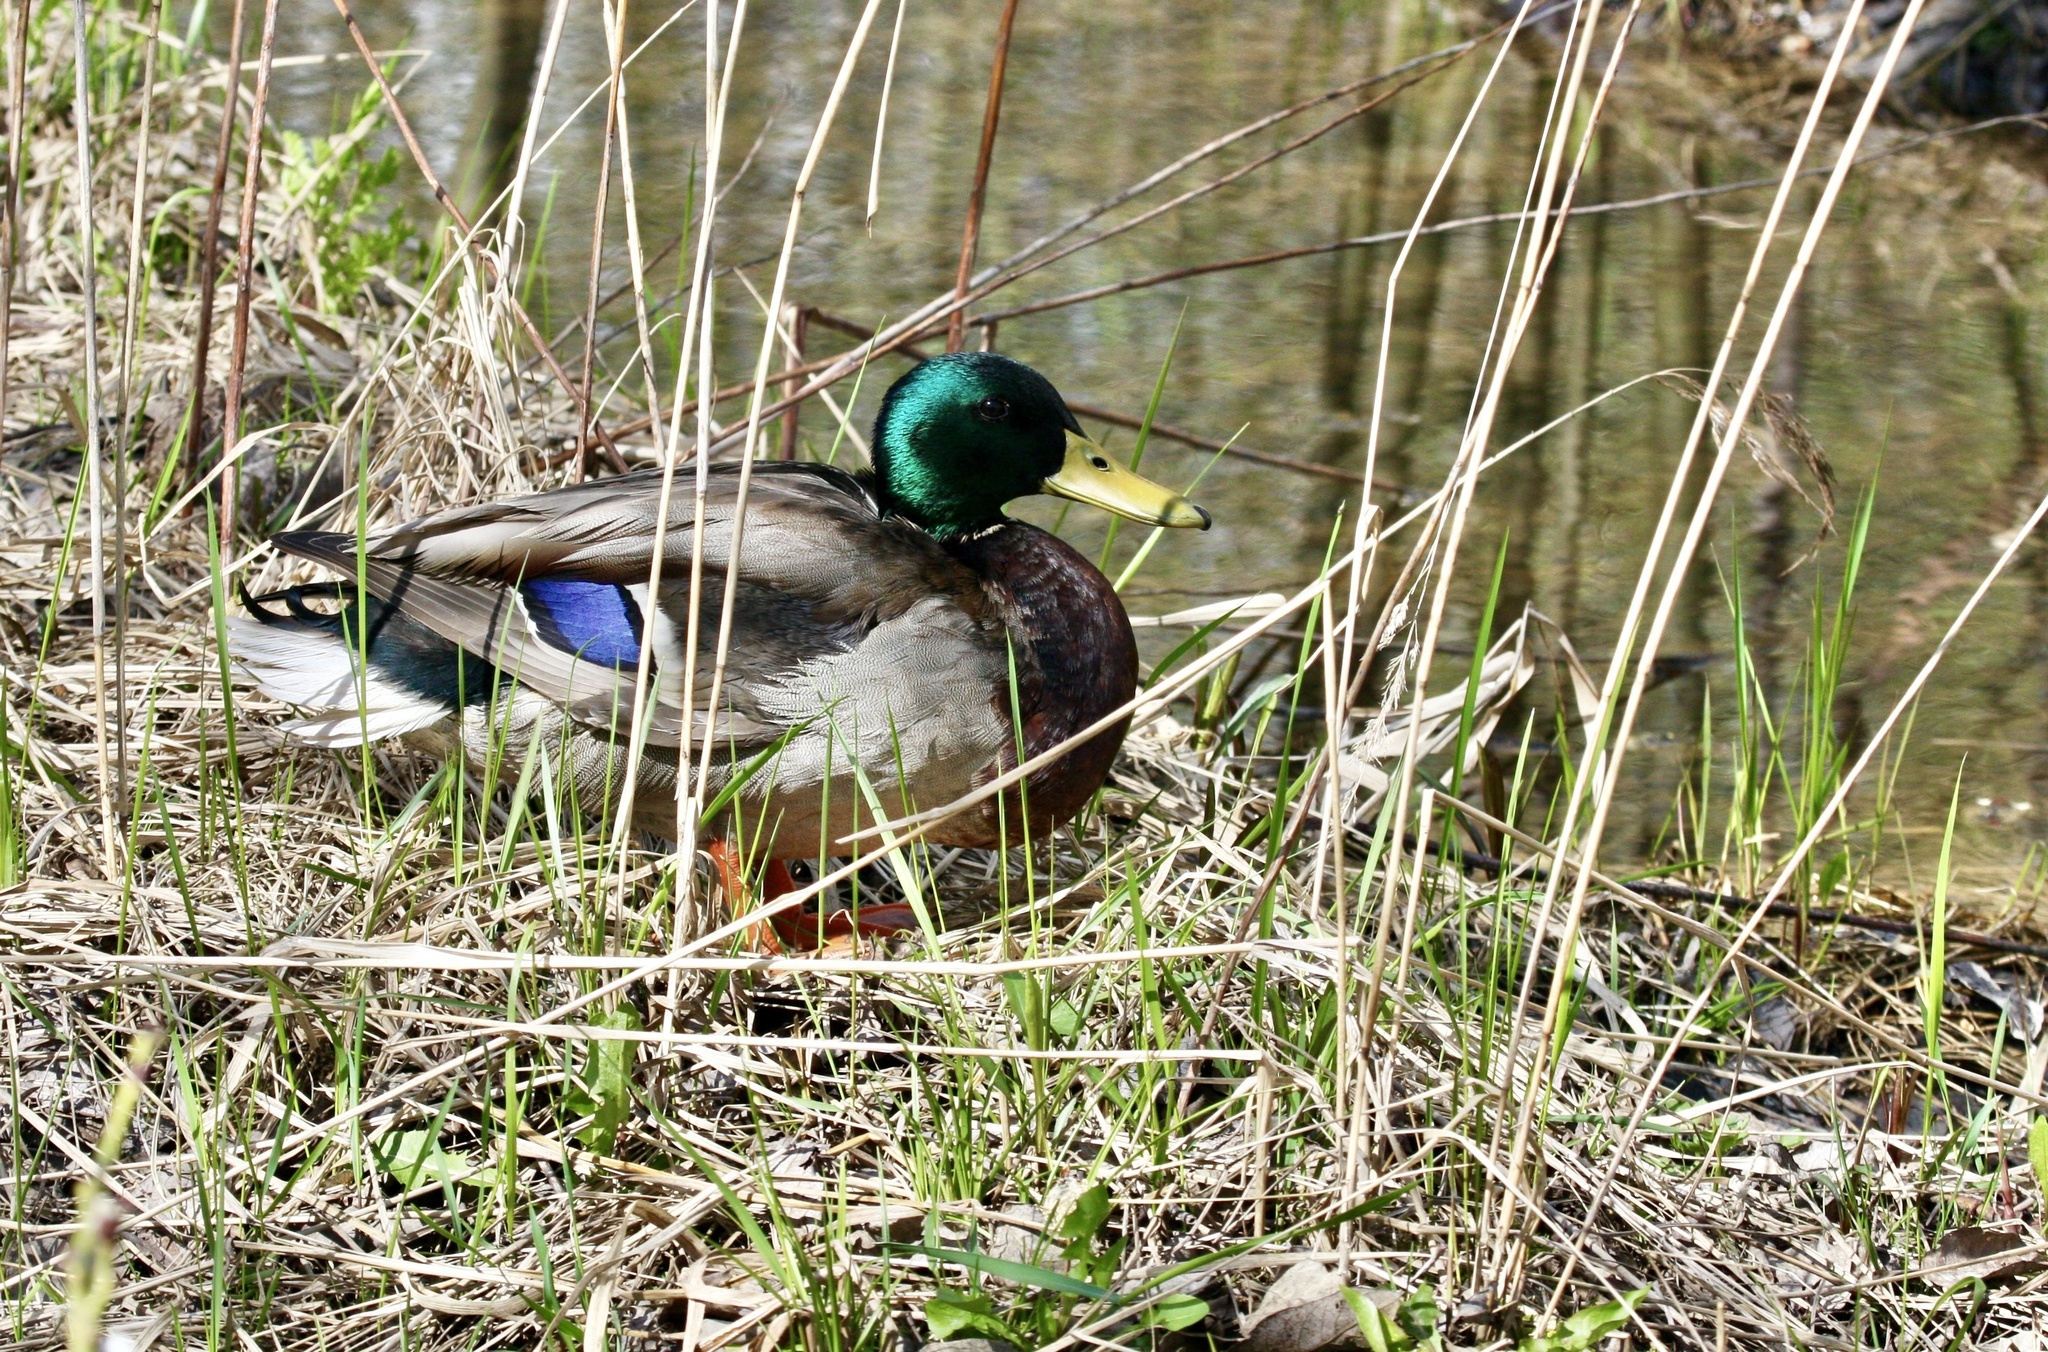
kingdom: Animalia
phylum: Chordata
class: Aves
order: Anseriformes
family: Anatidae
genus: Anas
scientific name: Anas platyrhynchos
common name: Mallard
